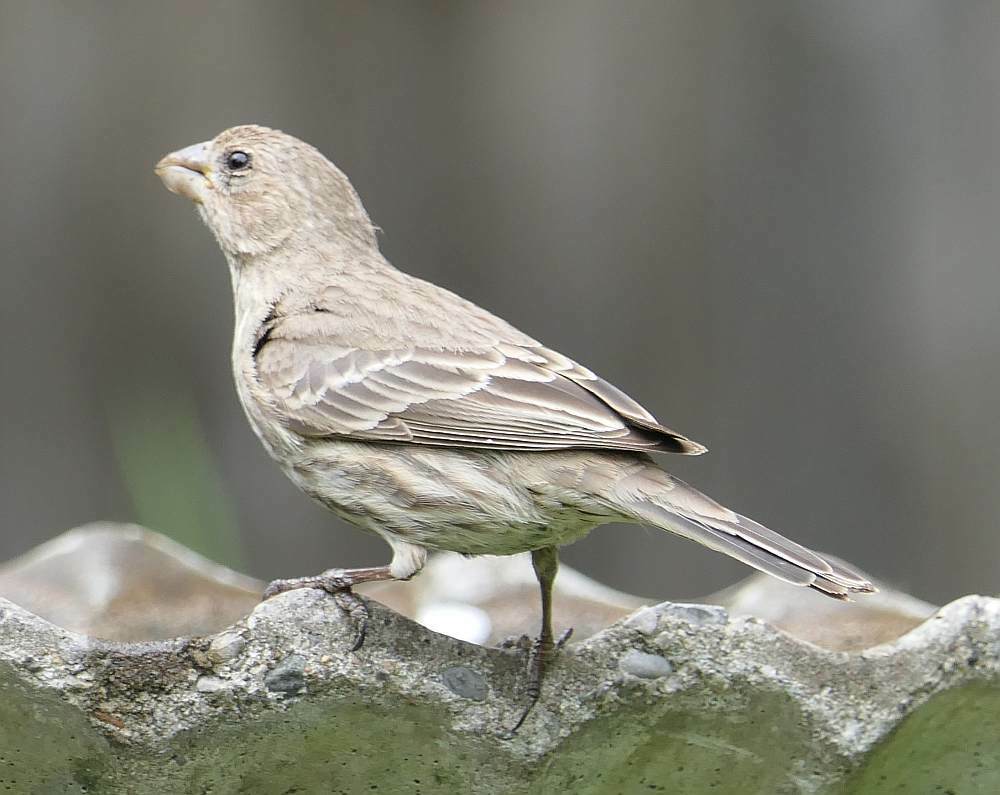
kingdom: Animalia
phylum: Chordata
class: Aves
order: Passeriformes
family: Fringillidae
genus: Haemorhous
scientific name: Haemorhous mexicanus
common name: House finch
